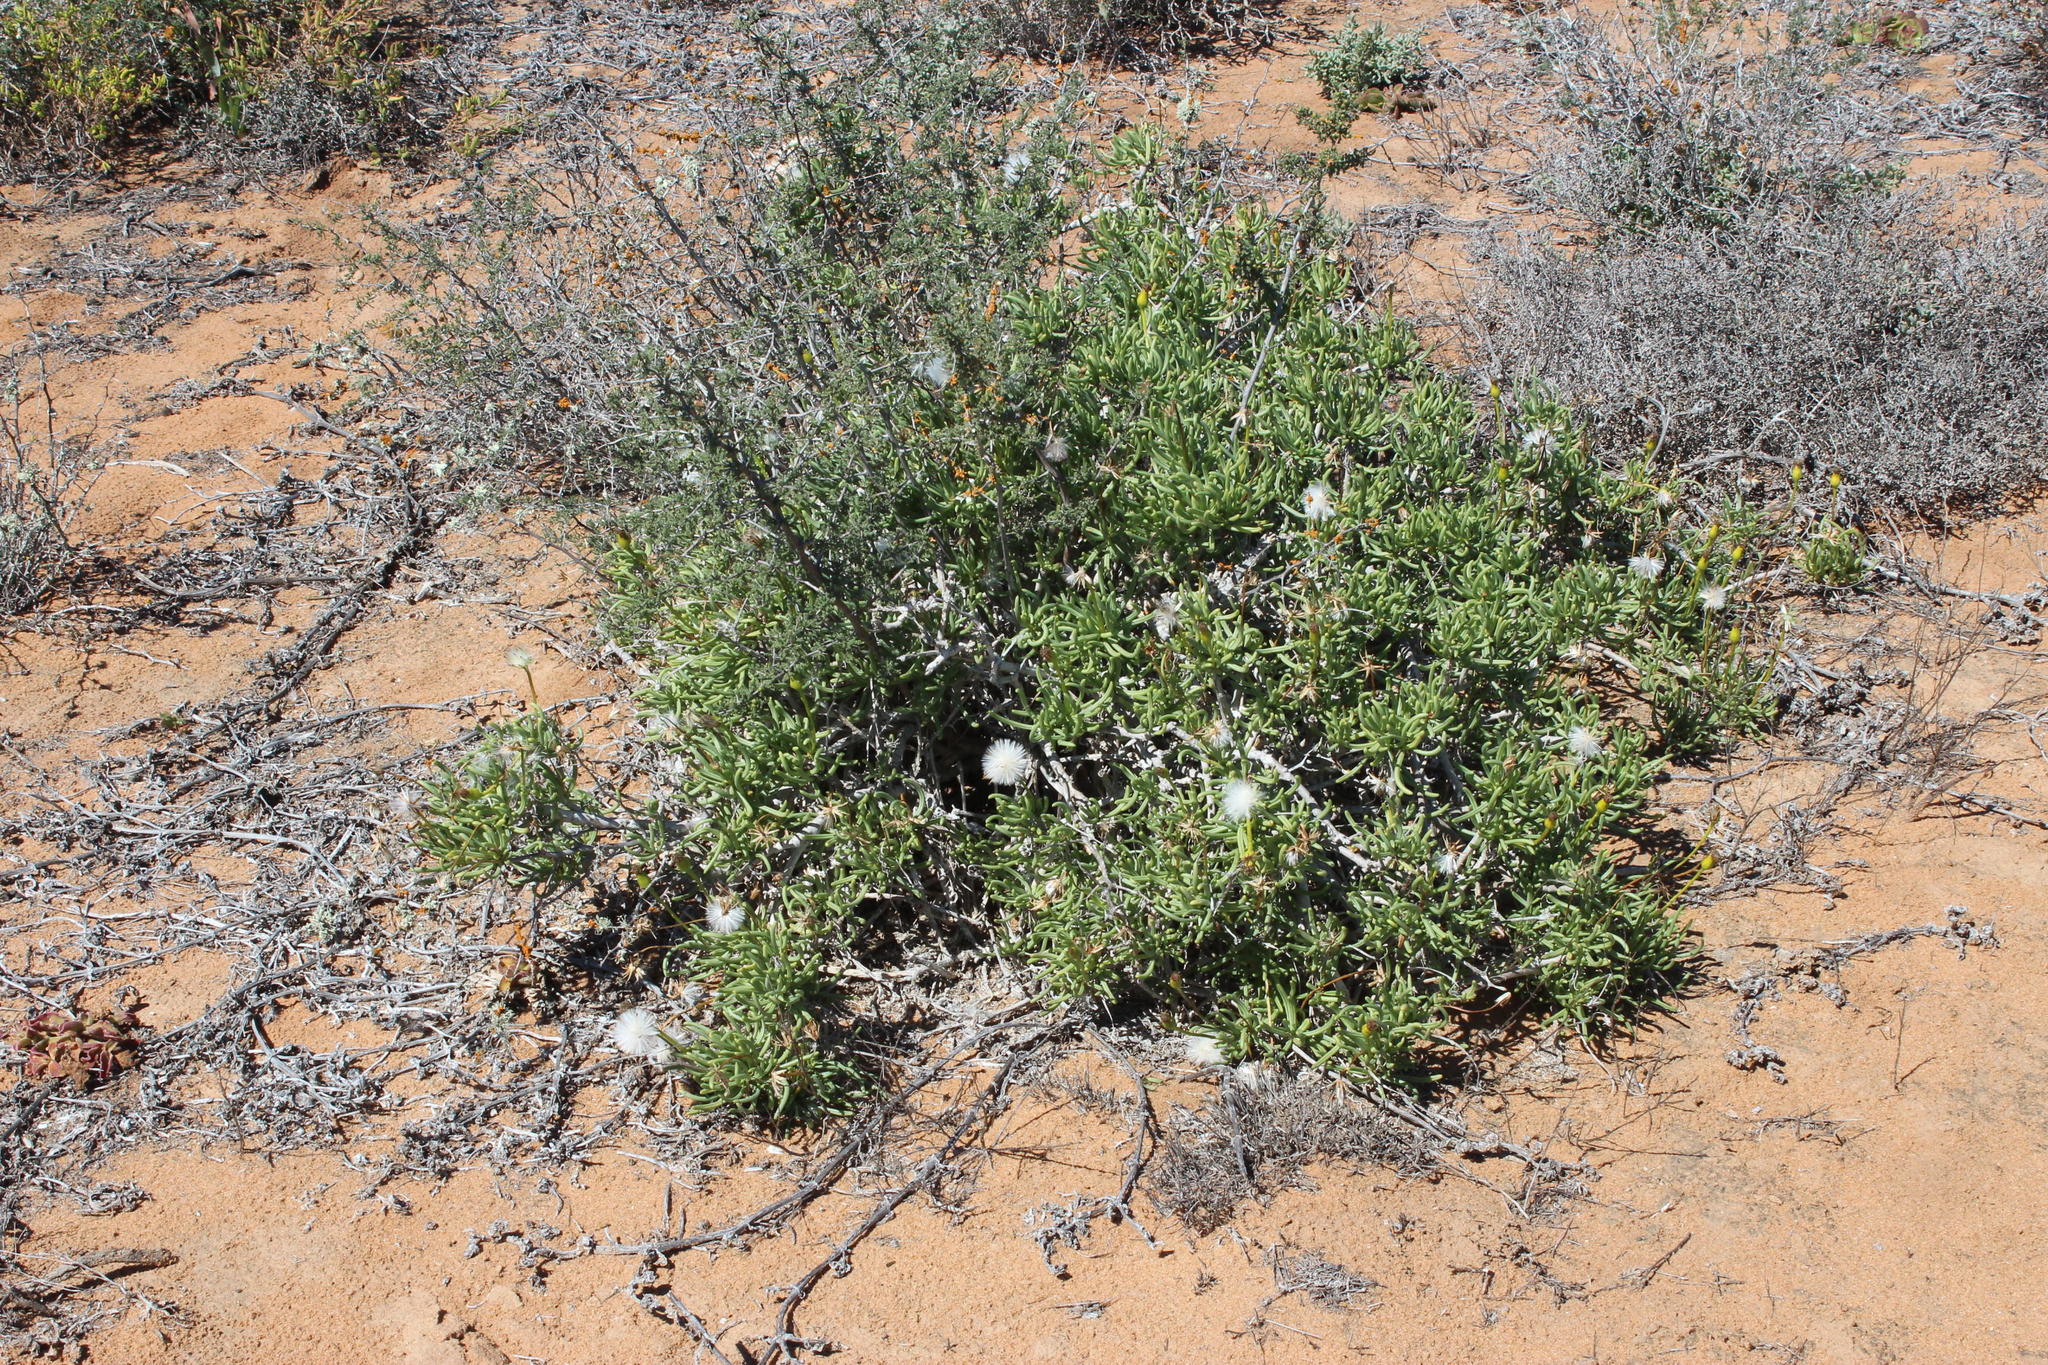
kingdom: Plantae
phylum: Tracheophyta
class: Magnoliopsida
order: Asterales
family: Asteraceae
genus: Senecio
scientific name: Senecio alooides
